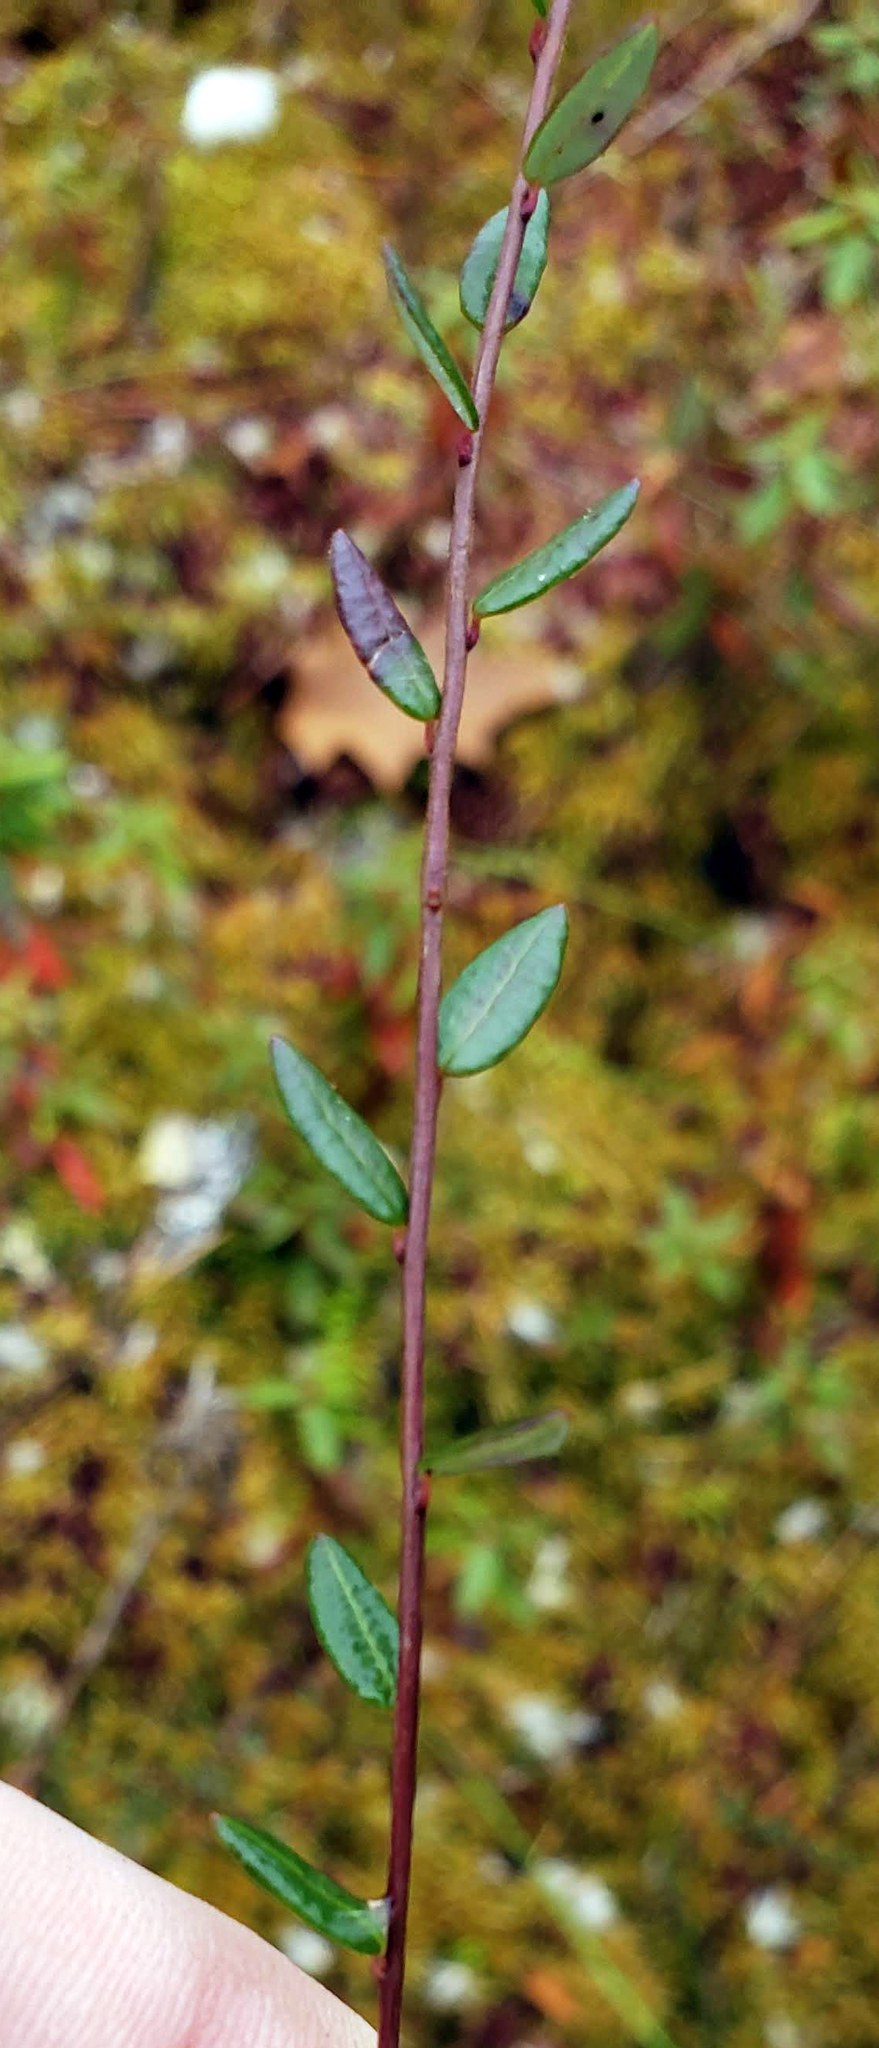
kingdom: Plantae
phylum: Tracheophyta
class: Magnoliopsida
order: Ericales
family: Ericaceae
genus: Vaccinium
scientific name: Vaccinium oxycoccos
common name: Cranberry
